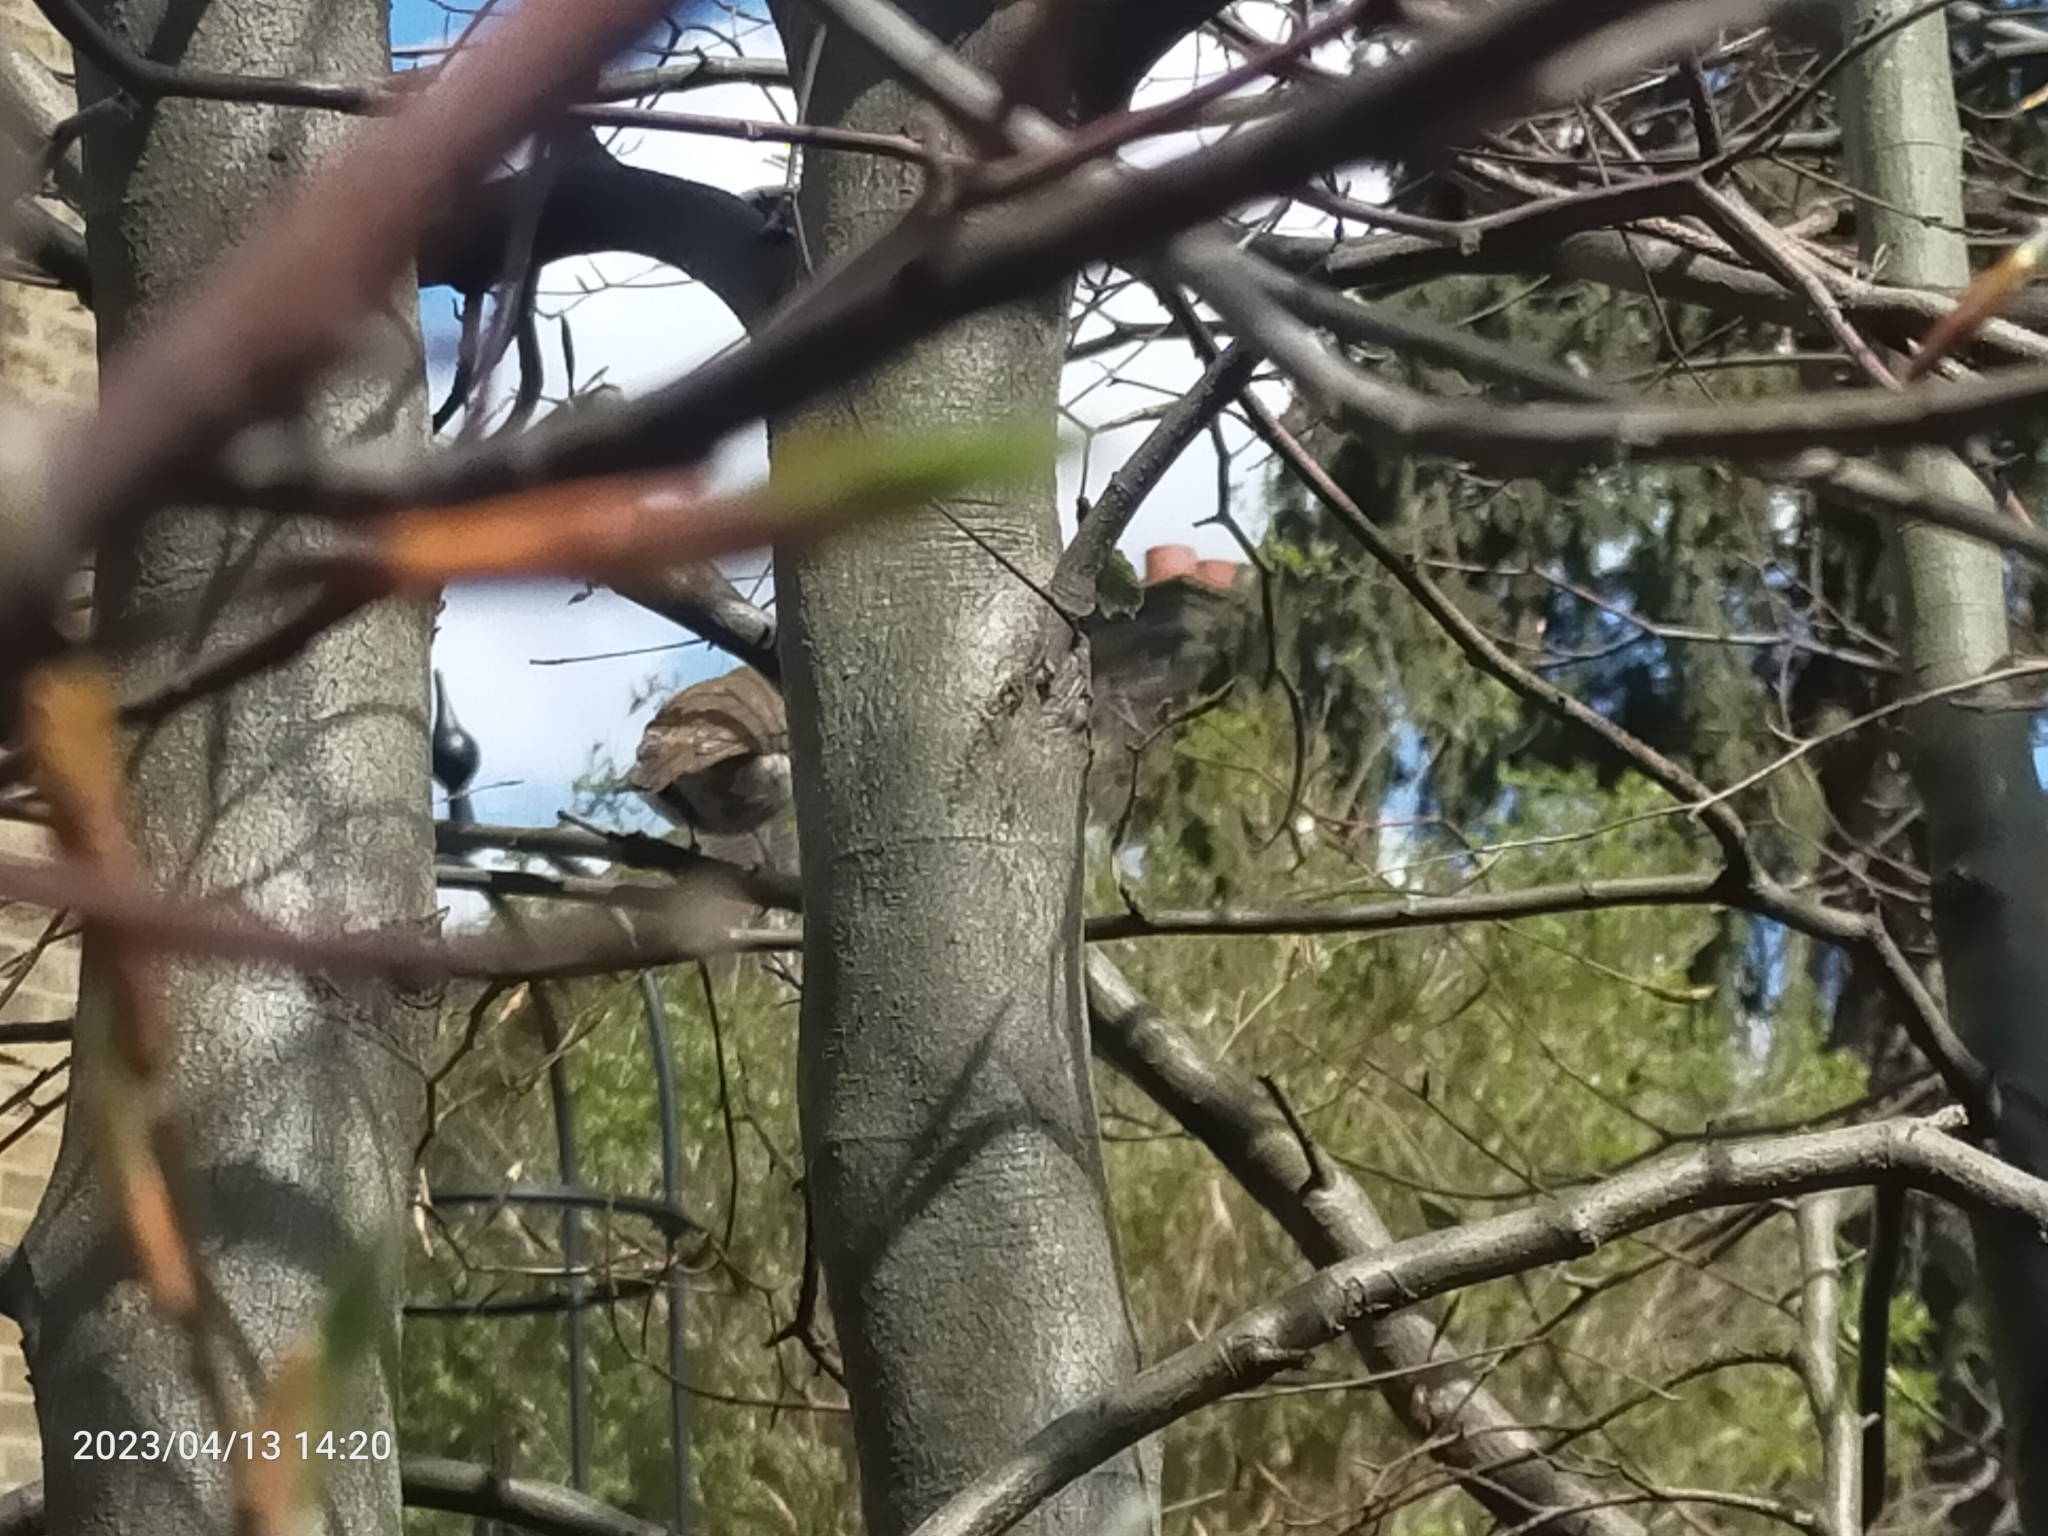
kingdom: Animalia
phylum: Chordata
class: Aves
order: Passeriformes
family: Muscicapidae
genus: Erithacus
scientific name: Erithacus rubecula
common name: European robin
